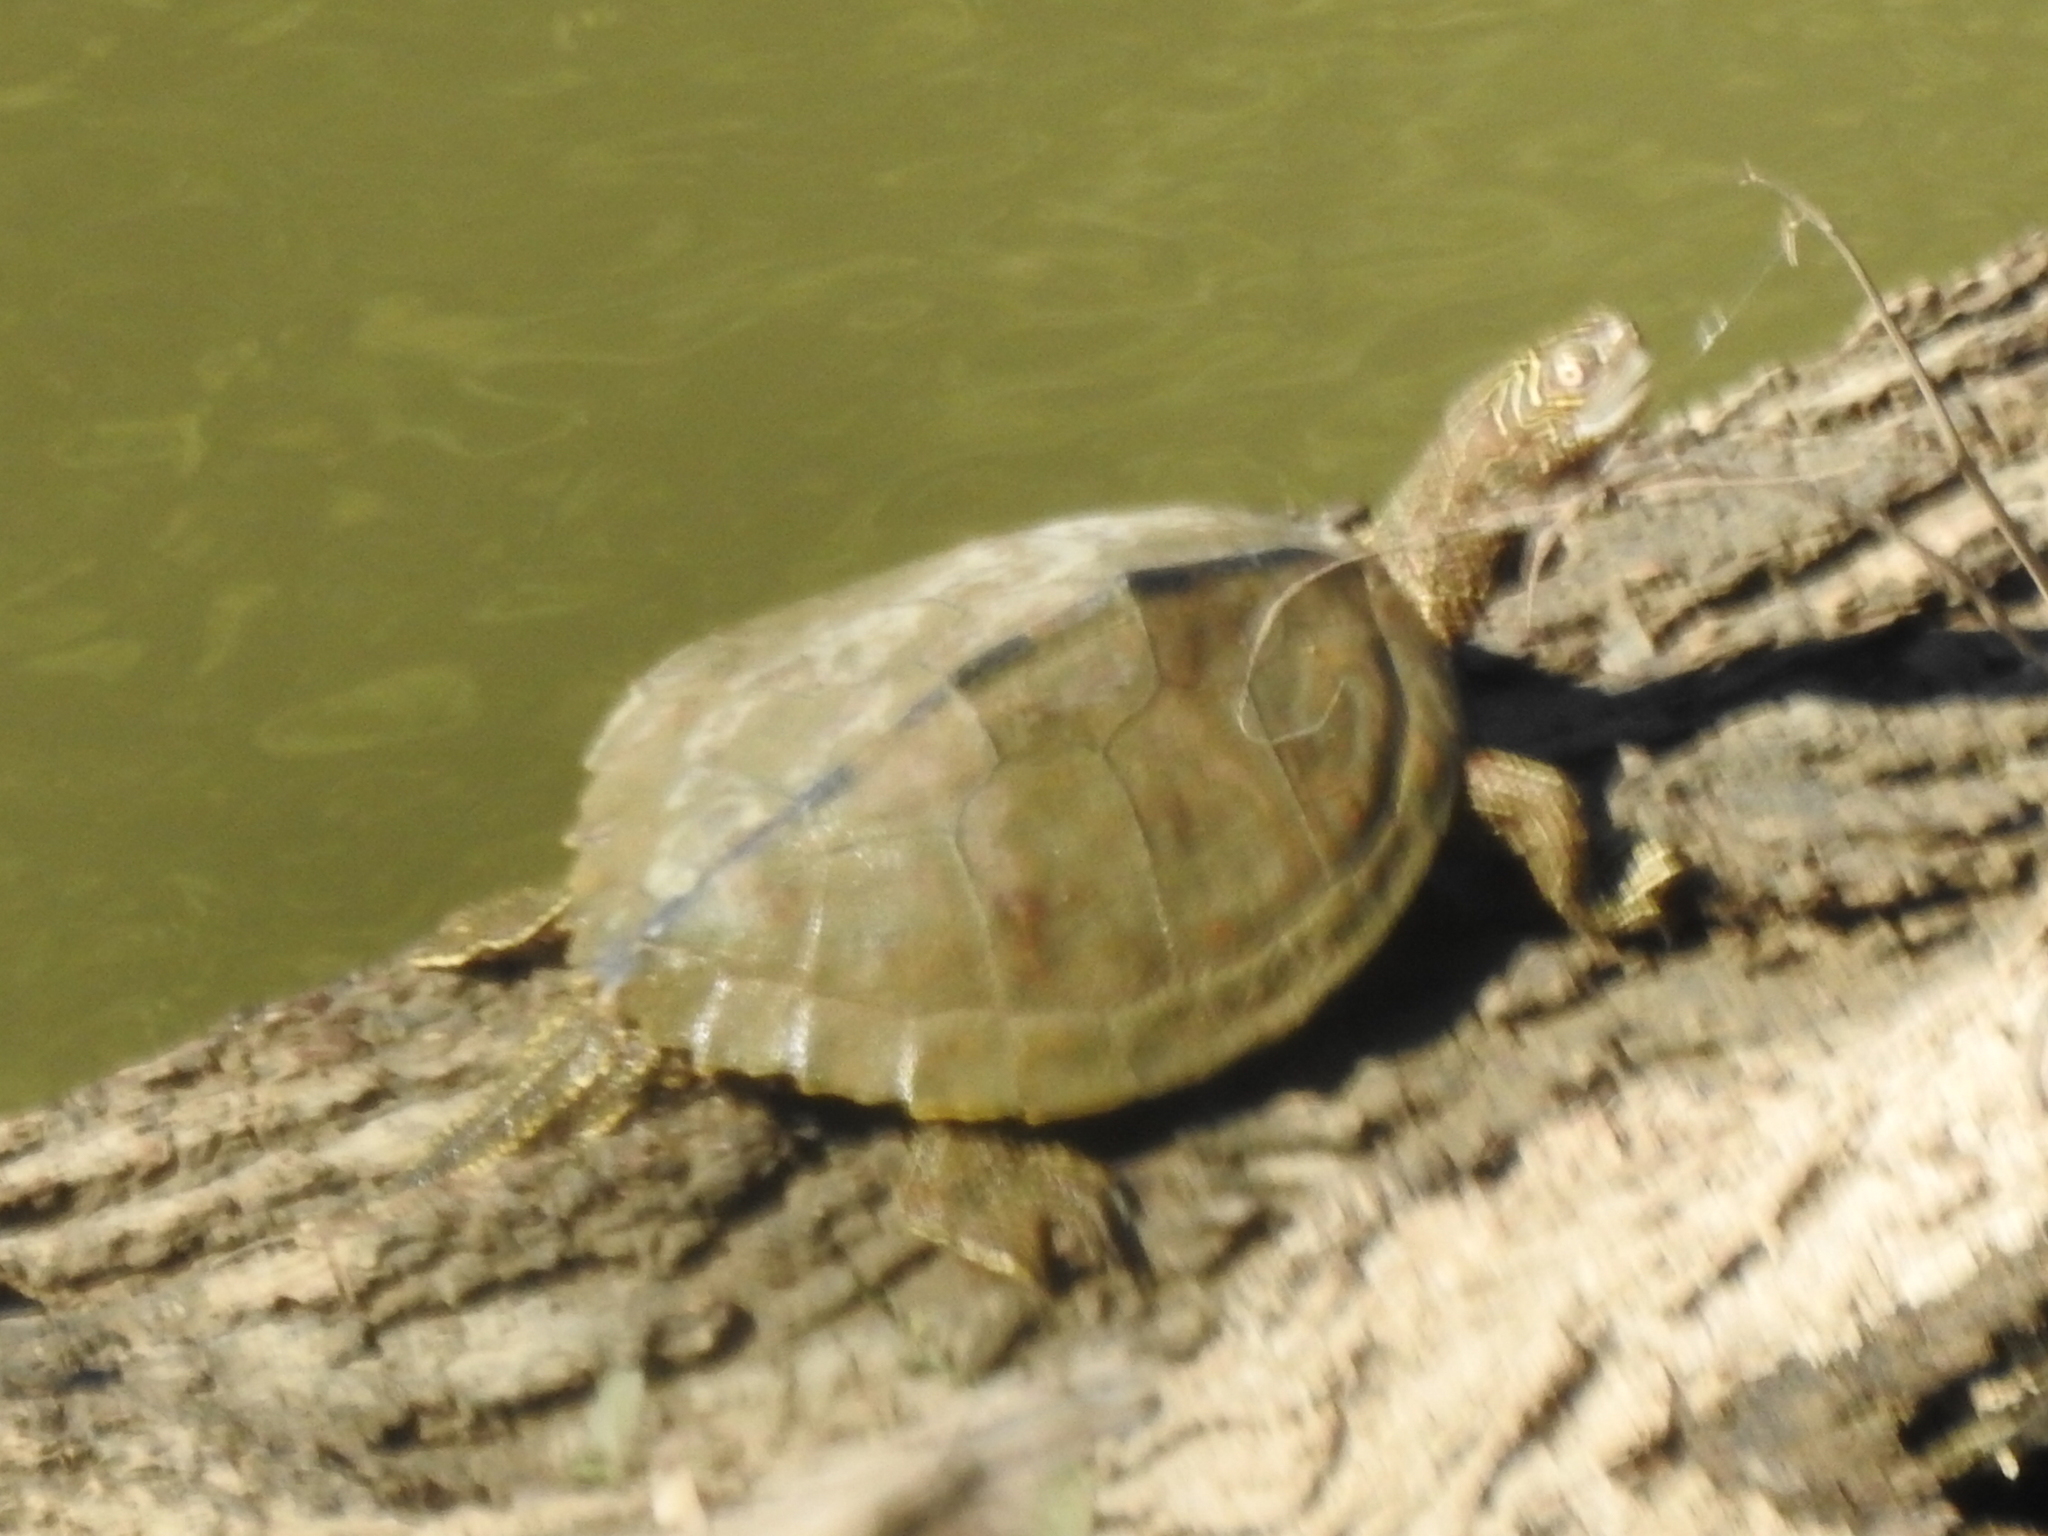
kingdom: Animalia
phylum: Chordata
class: Testudines
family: Emydidae
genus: Graptemys
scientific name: Graptemys pseudogeographica
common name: False map turtle
